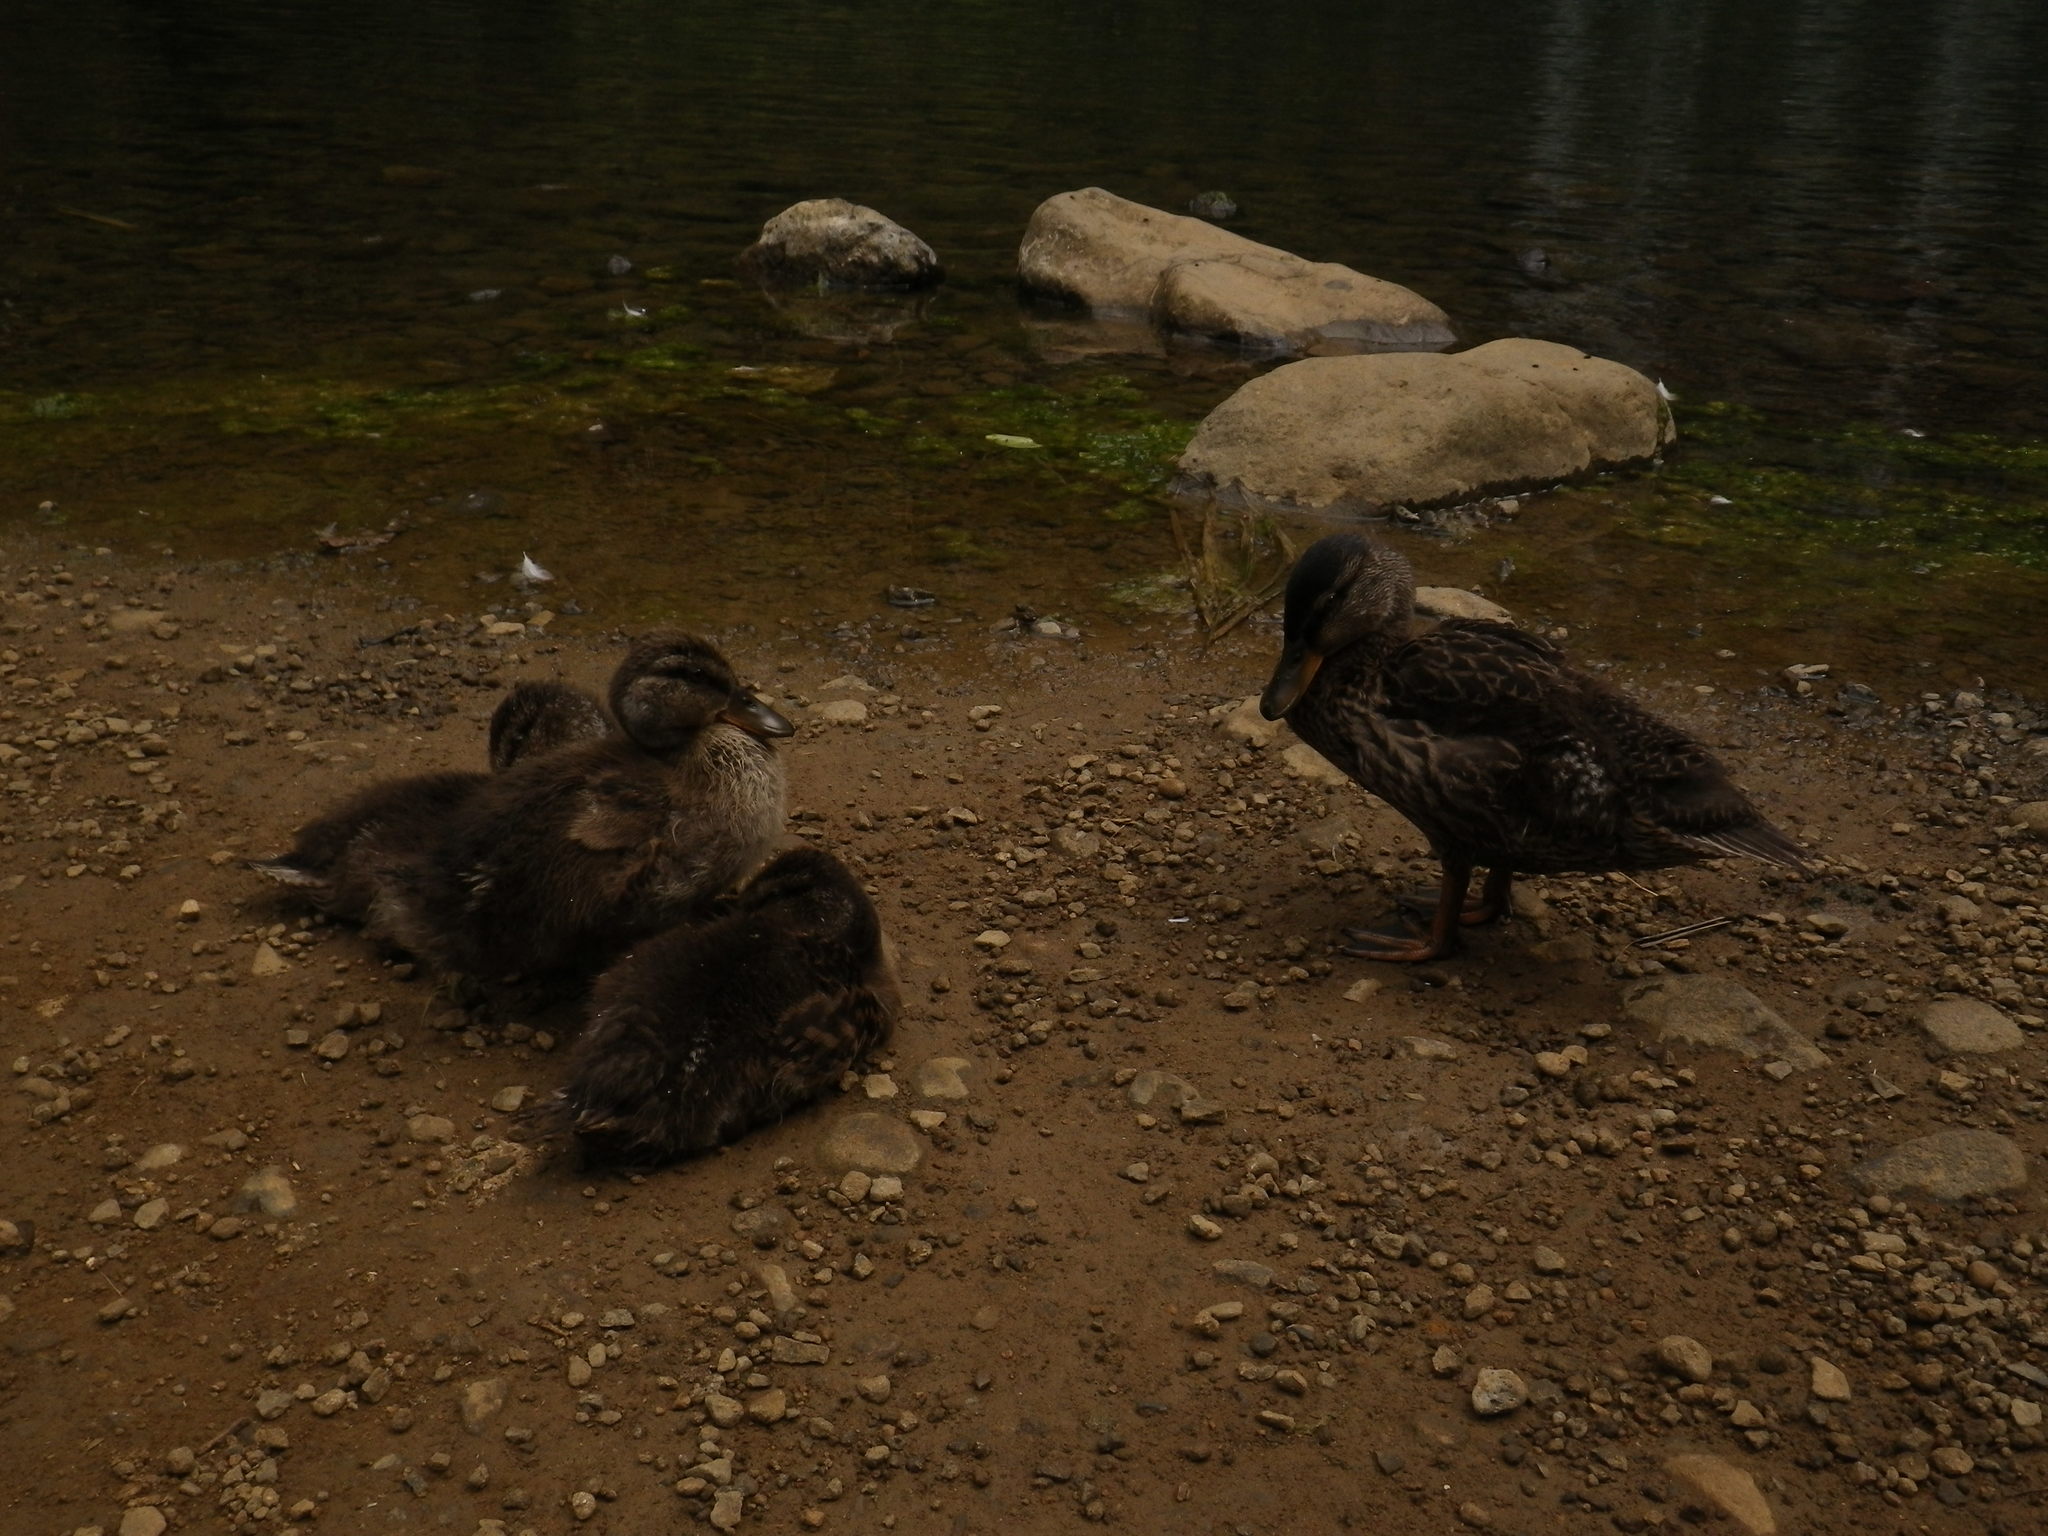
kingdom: Animalia
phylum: Chordata
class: Aves
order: Anseriformes
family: Anatidae
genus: Anas
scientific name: Anas
